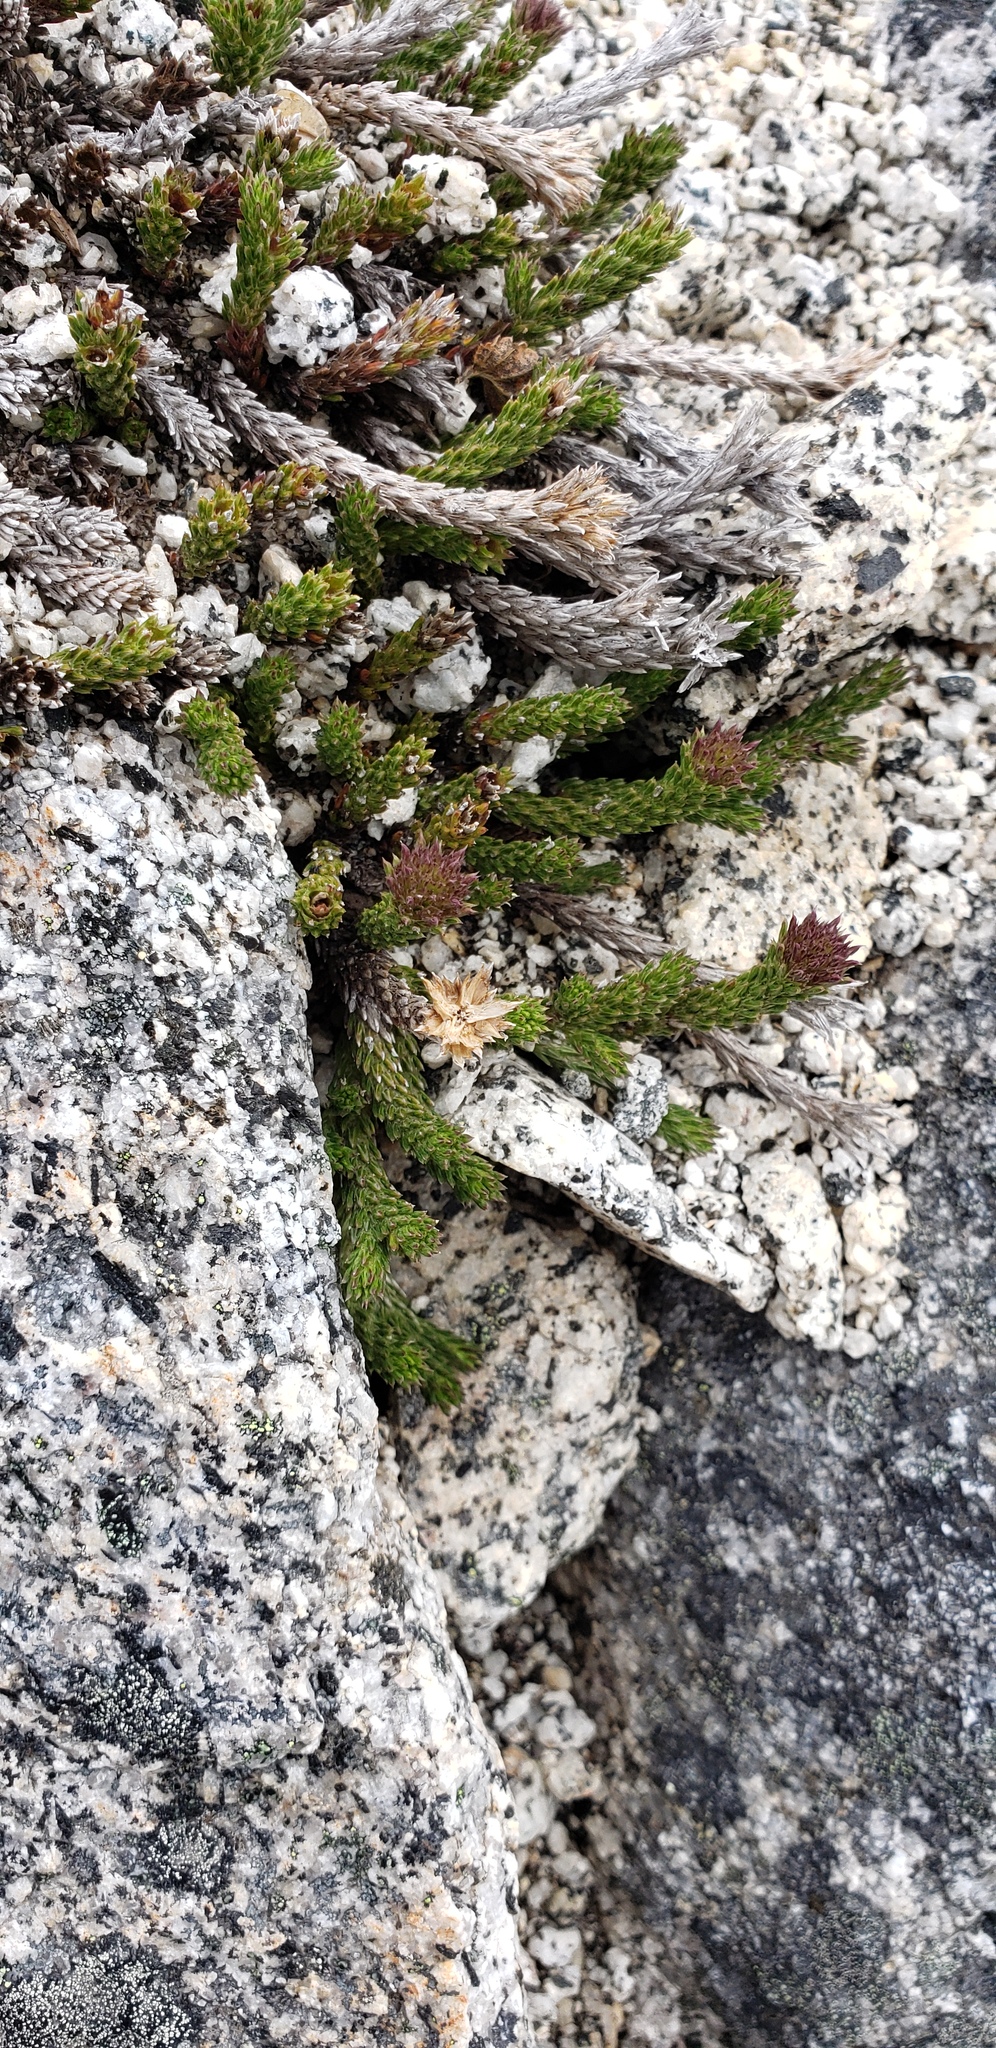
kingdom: Plantae
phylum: Tracheophyta
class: Magnoliopsida
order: Asterales
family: Asteraceae
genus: Nassauvia
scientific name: Nassauvia pygmaea
